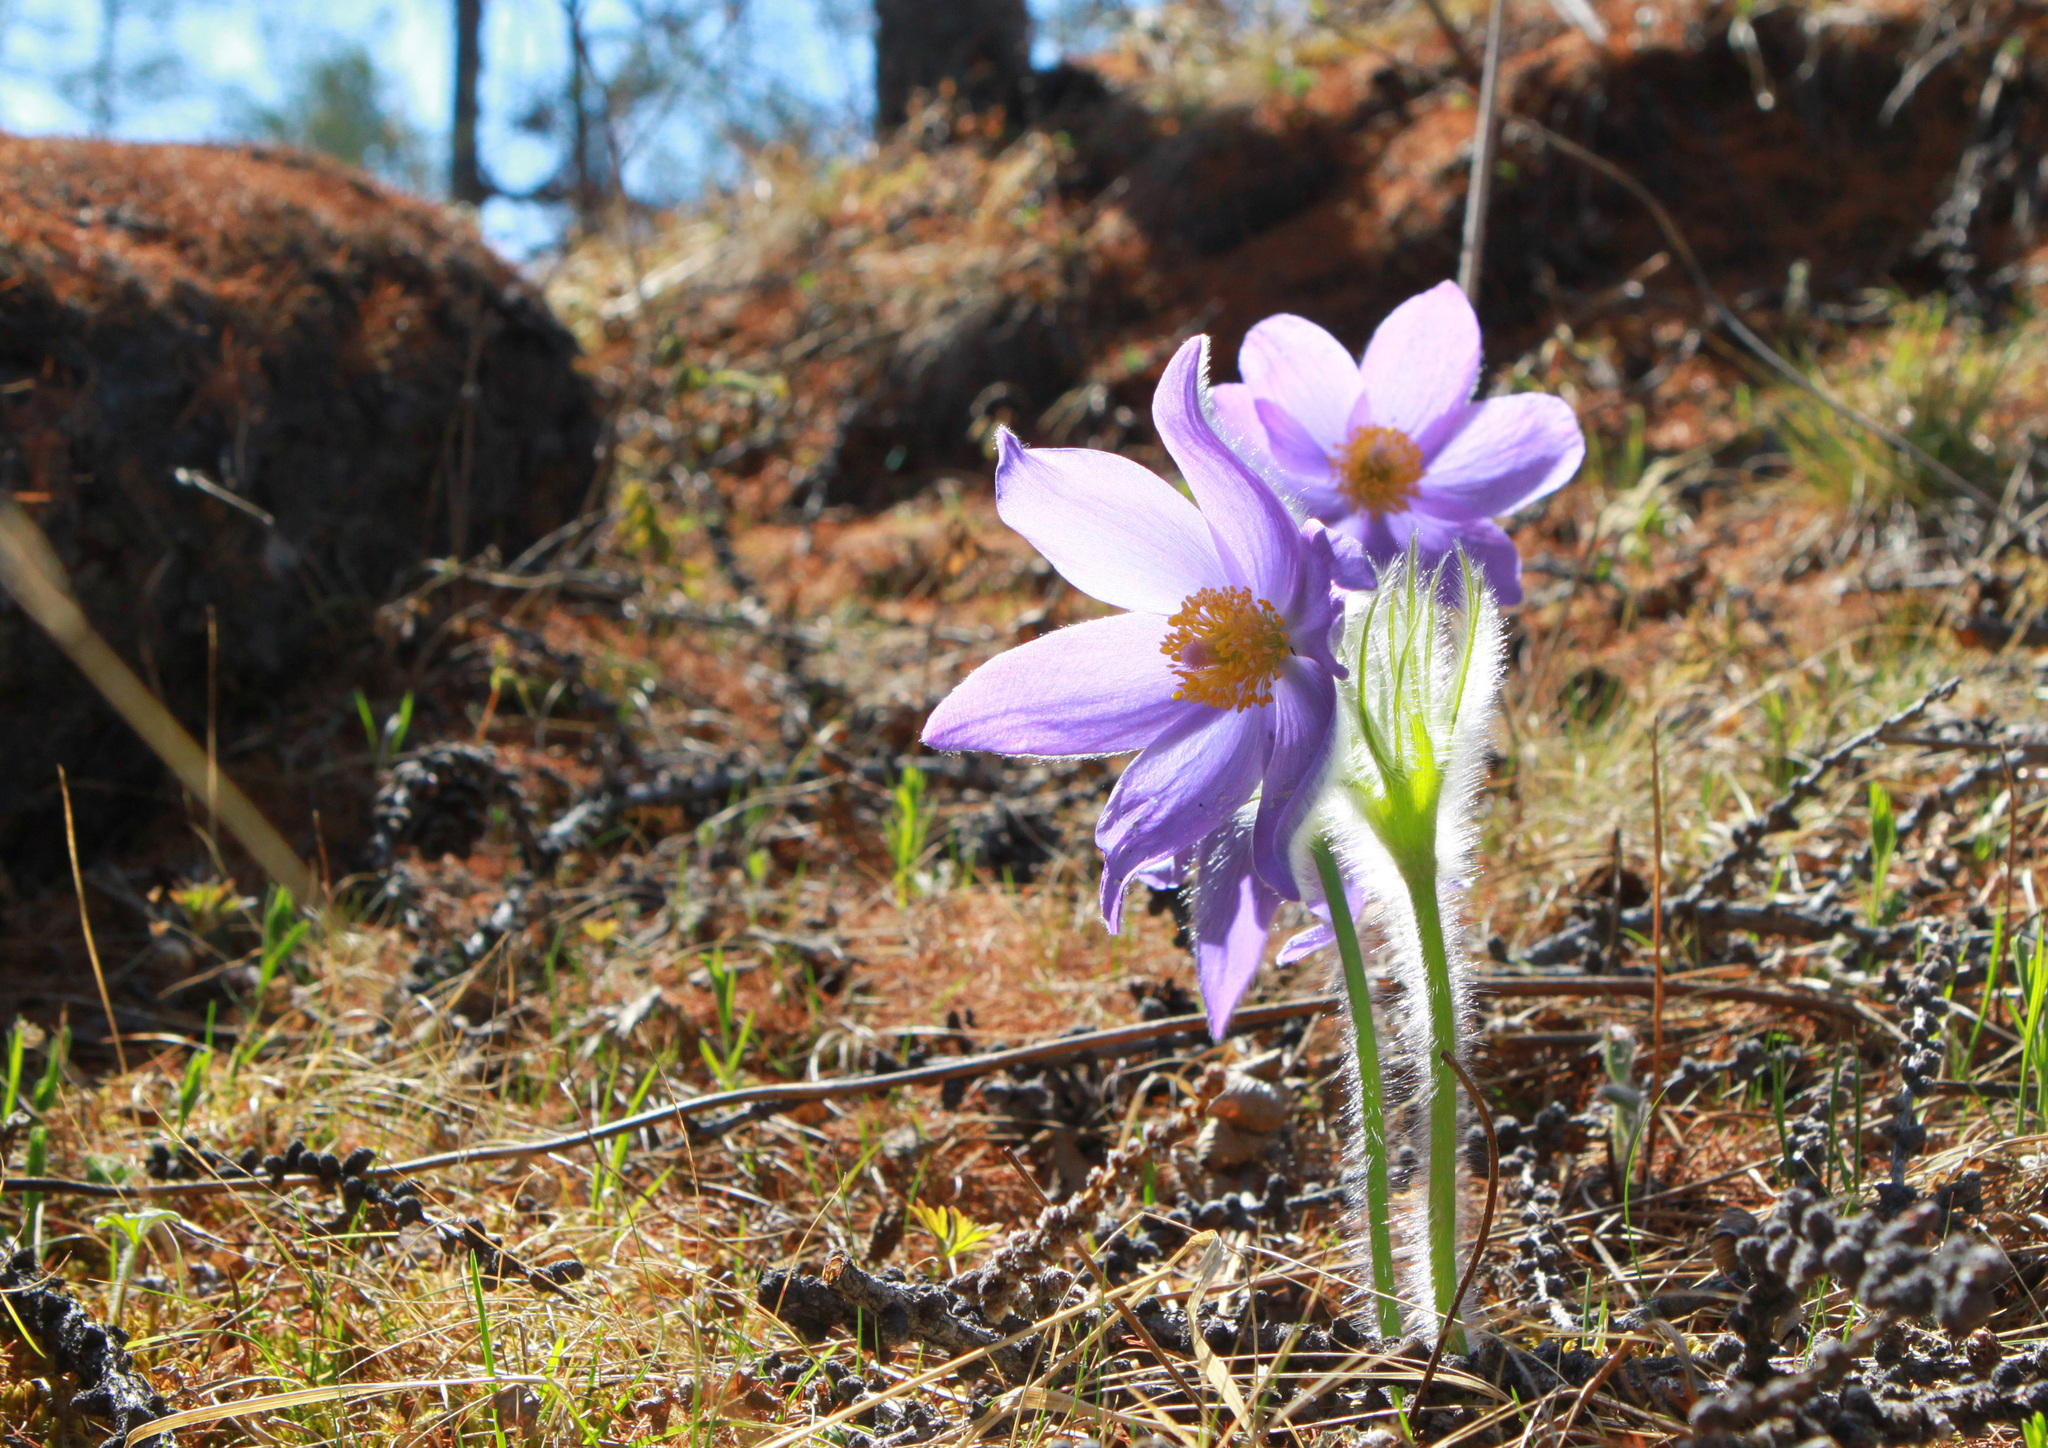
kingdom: Plantae
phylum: Tracheophyta
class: Magnoliopsida
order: Ranunculales
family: Ranunculaceae
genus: Pulsatilla
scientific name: Pulsatilla patens
